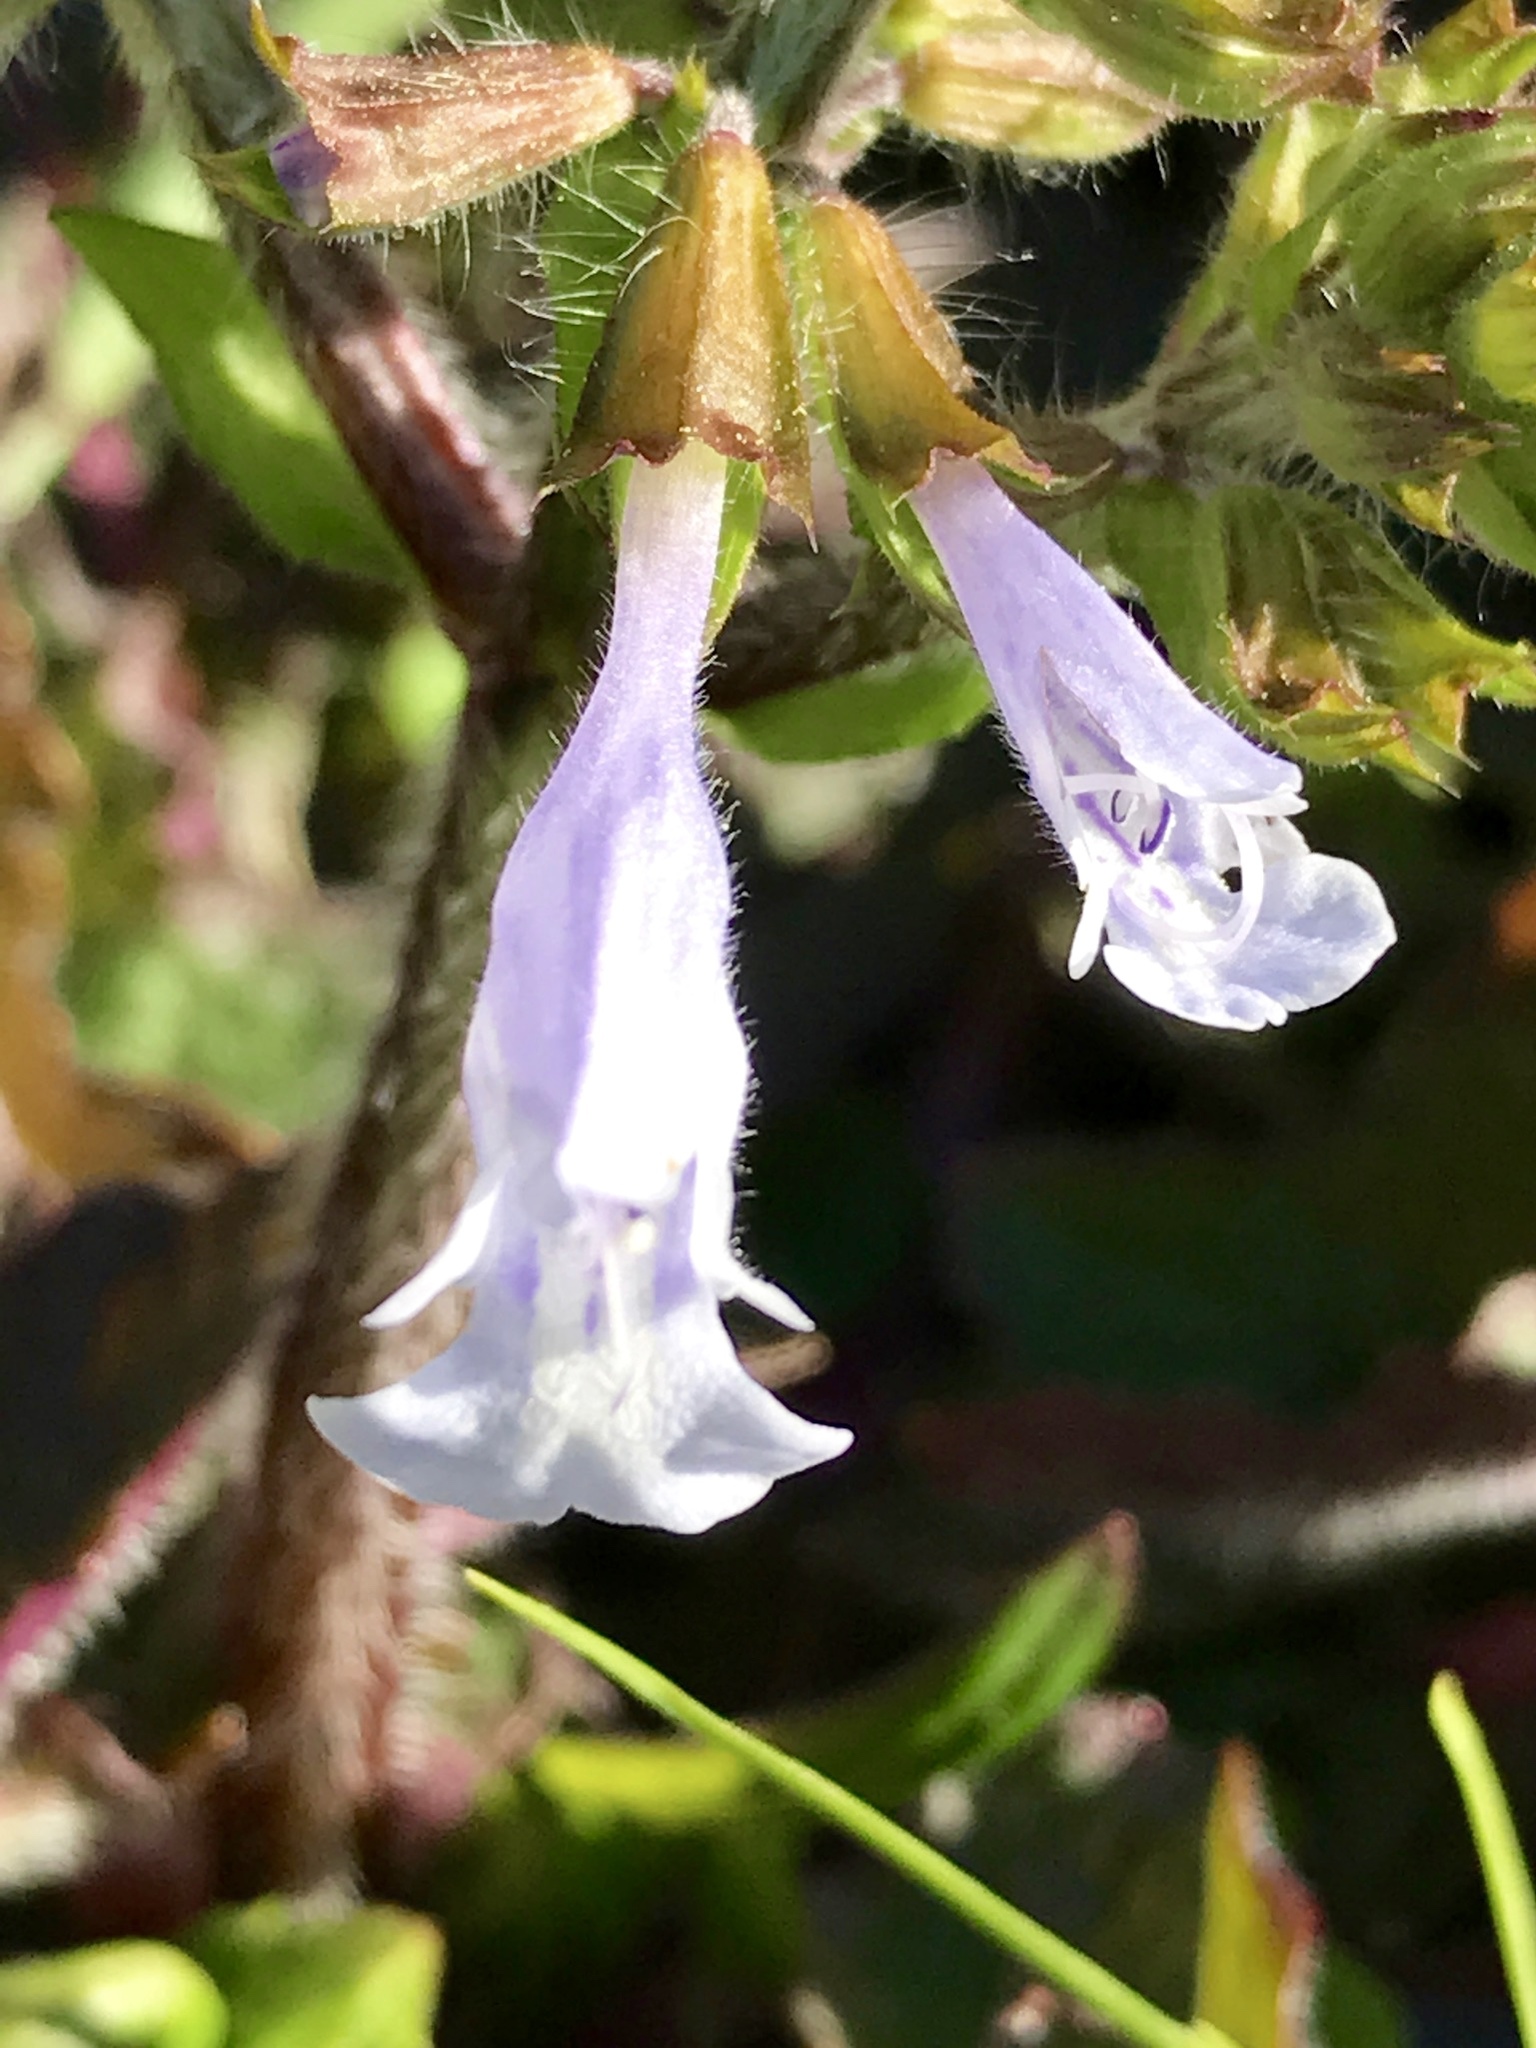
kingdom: Plantae
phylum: Tracheophyta
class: Magnoliopsida
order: Lamiales
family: Lamiaceae
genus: Salvia
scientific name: Salvia lyrata
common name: Cancerweed
